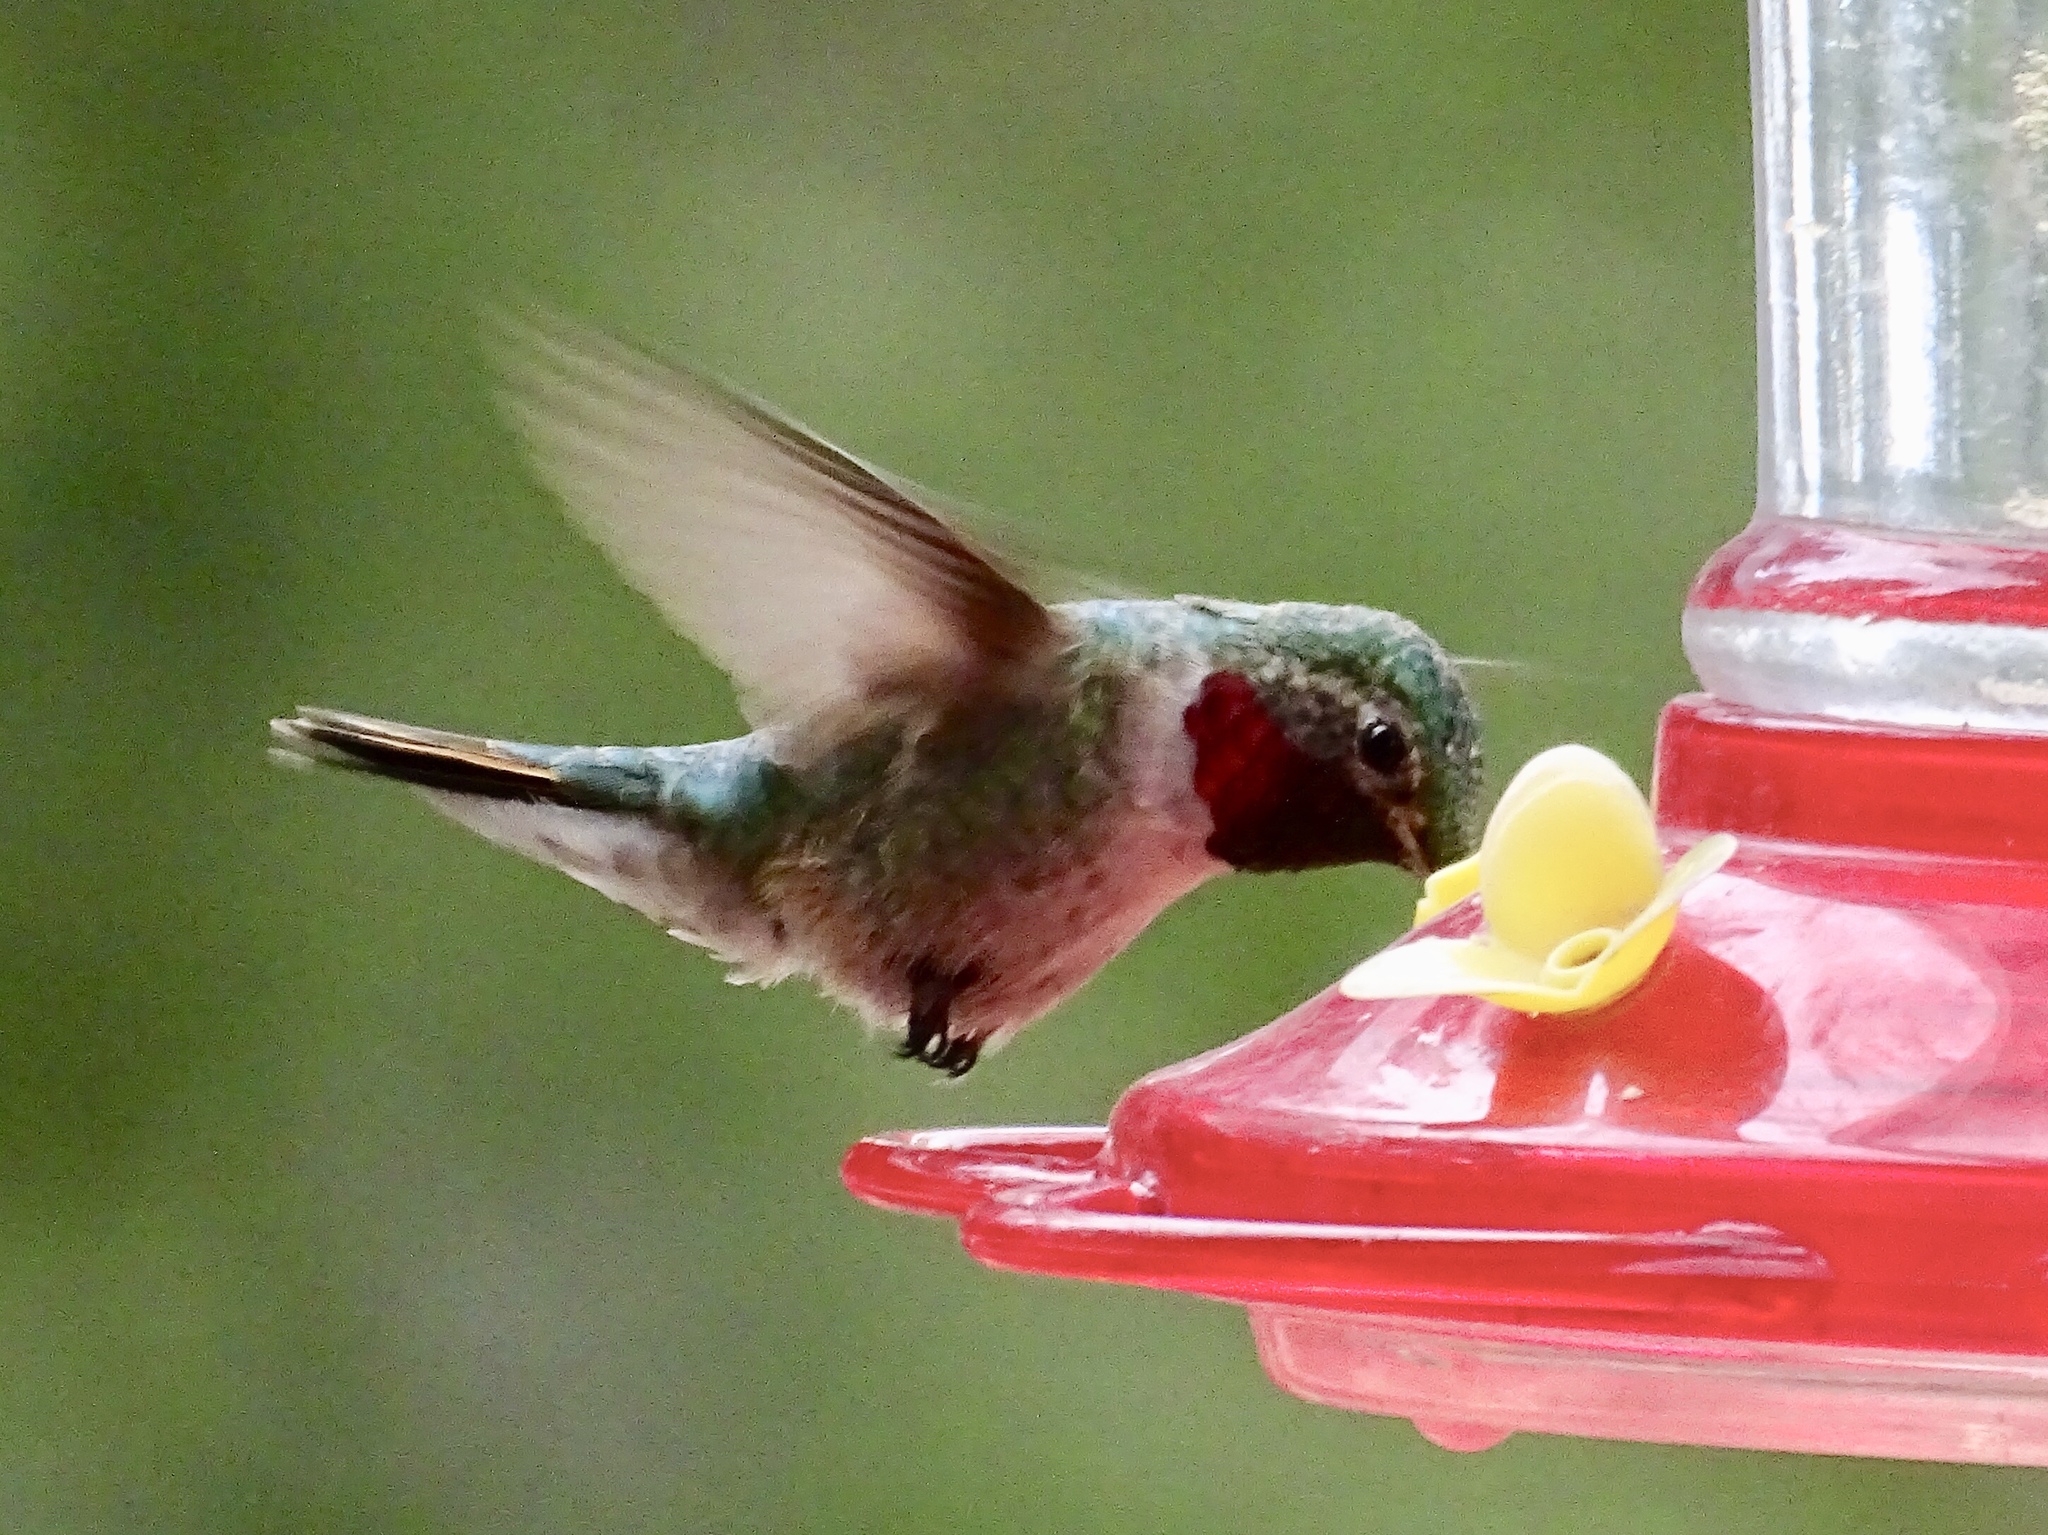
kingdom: Animalia
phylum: Chordata
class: Aves
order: Apodiformes
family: Trochilidae
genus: Selasphorus
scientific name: Selasphorus platycercus
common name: Broad-tailed hummingbird
